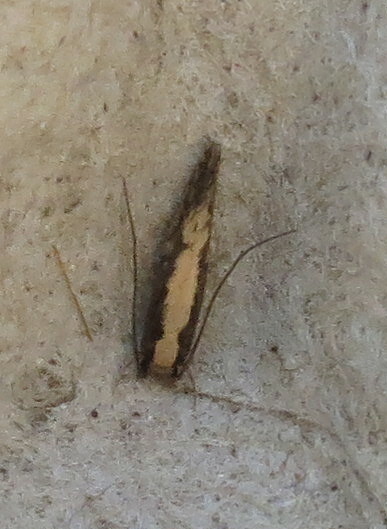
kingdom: Animalia
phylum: Arthropoda
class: Insecta
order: Lepidoptera
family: Tineidae
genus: Monopis
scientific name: Monopis crocicapitella
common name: Moth
